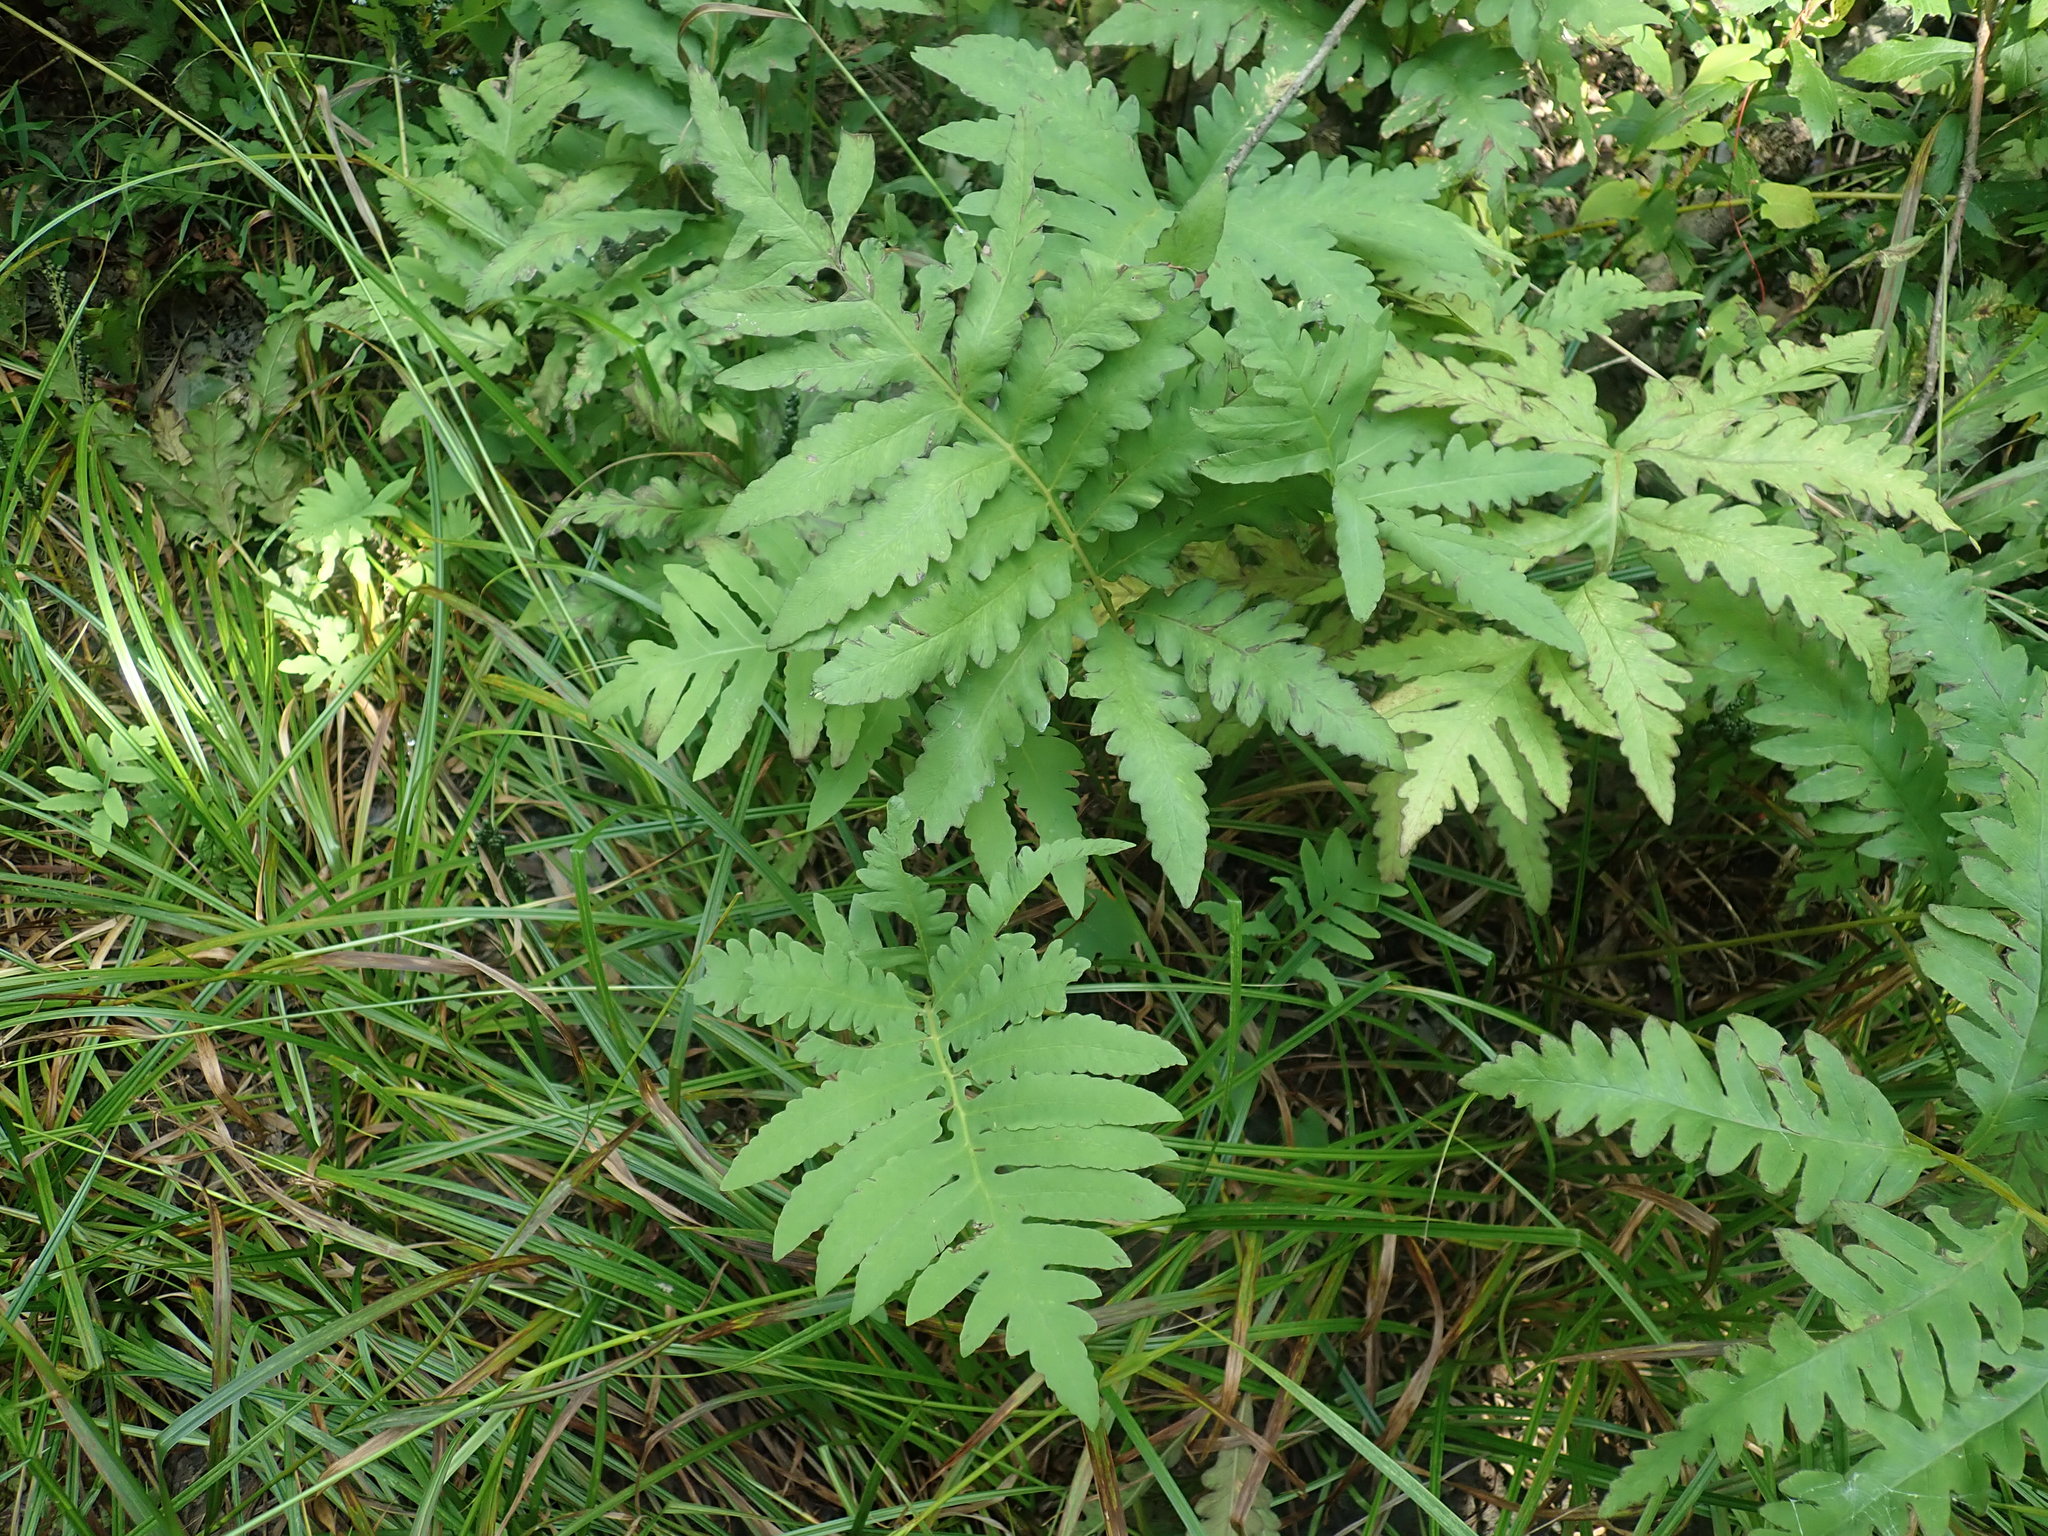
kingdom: Plantae
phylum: Tracheophyta
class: Polypodiopsida
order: Polypodiales
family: Onocleaceae
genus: Onoclea
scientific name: Onoclea sensibilis
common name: Sensitive fern
